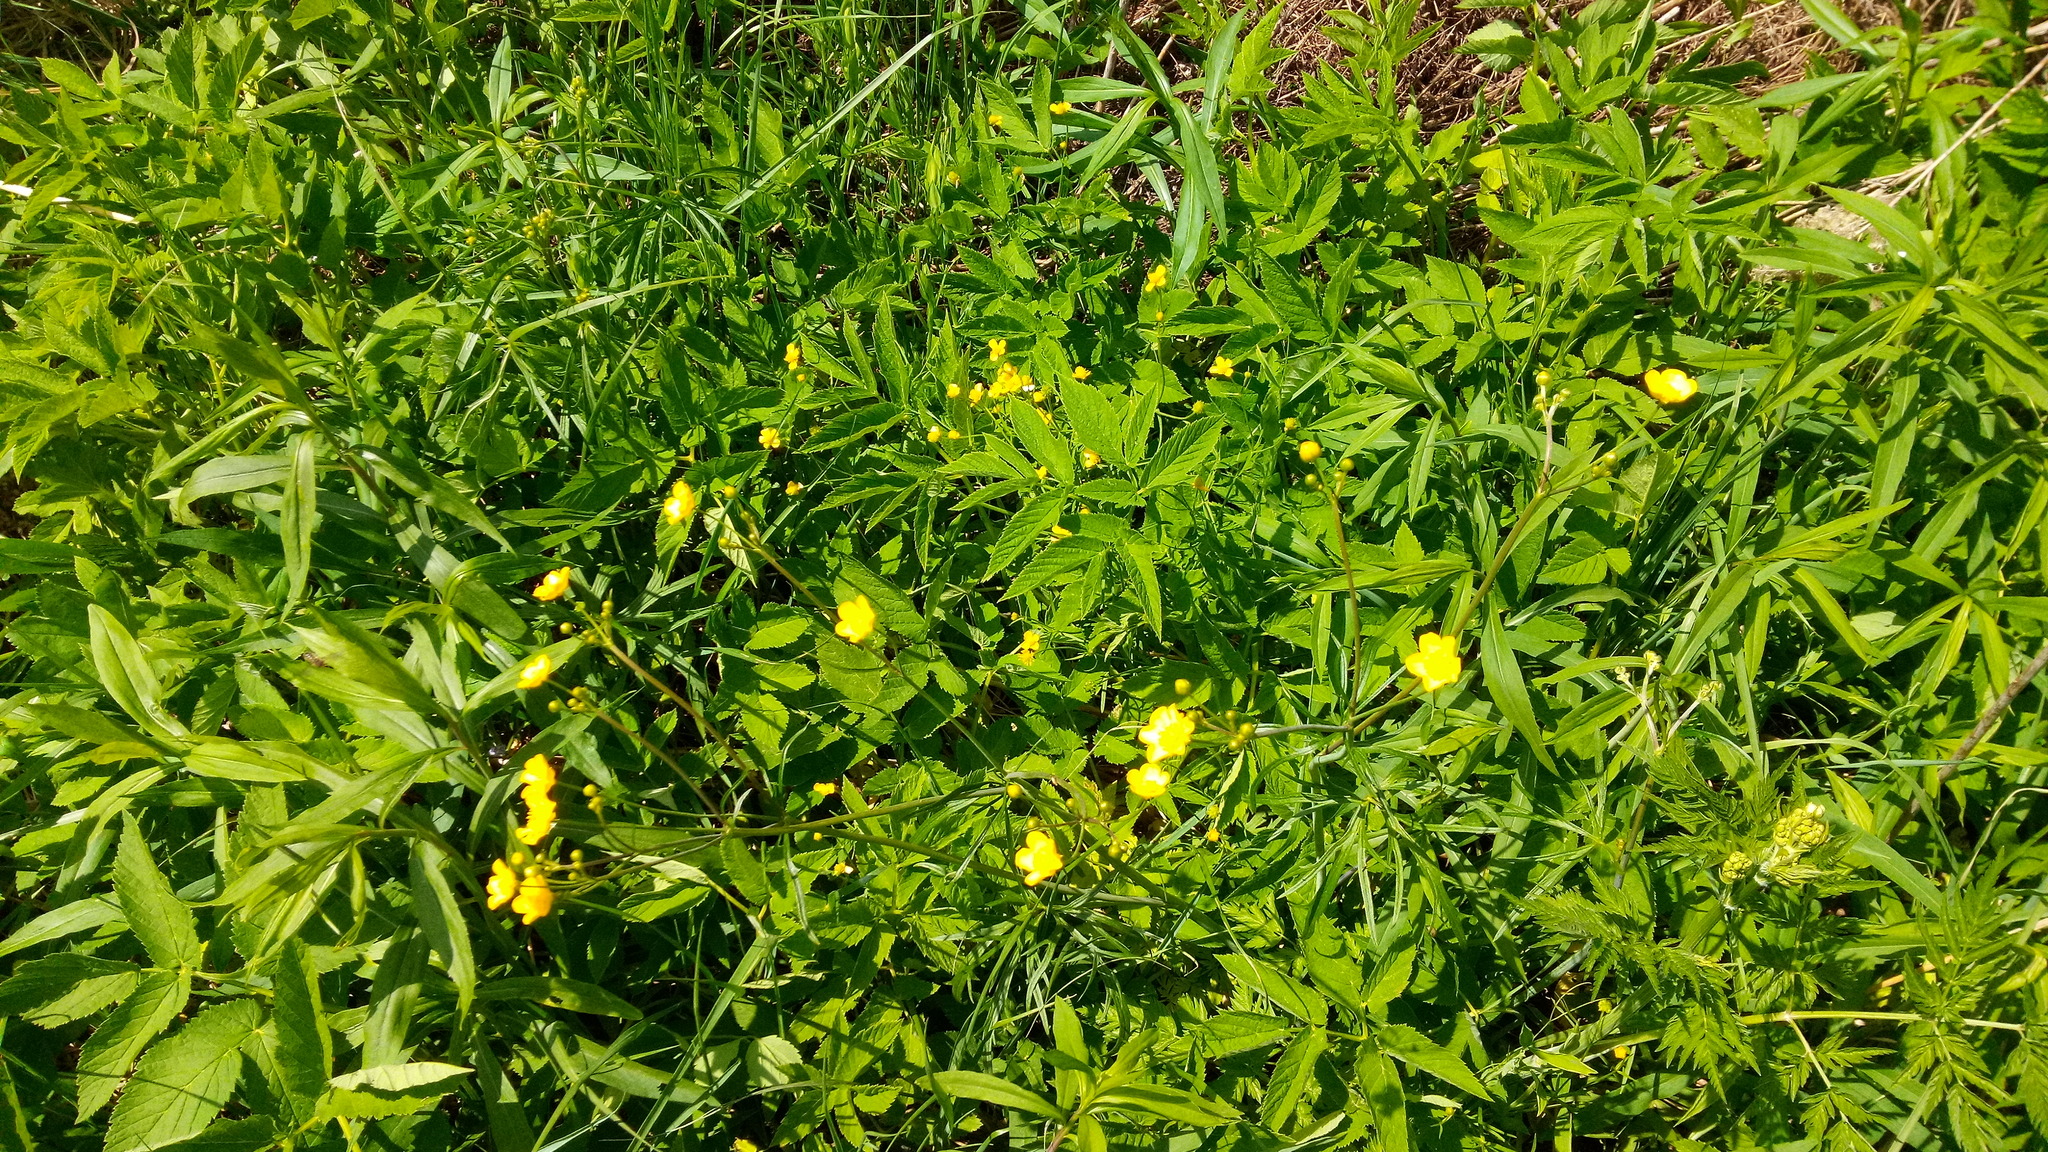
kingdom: Plantae
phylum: Tracheophyta
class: Magnoliopsida
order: Ranunculales
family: Ranunculaceae
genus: Ranunculus
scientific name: Ranunculus acris
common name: Meadow buttercup
